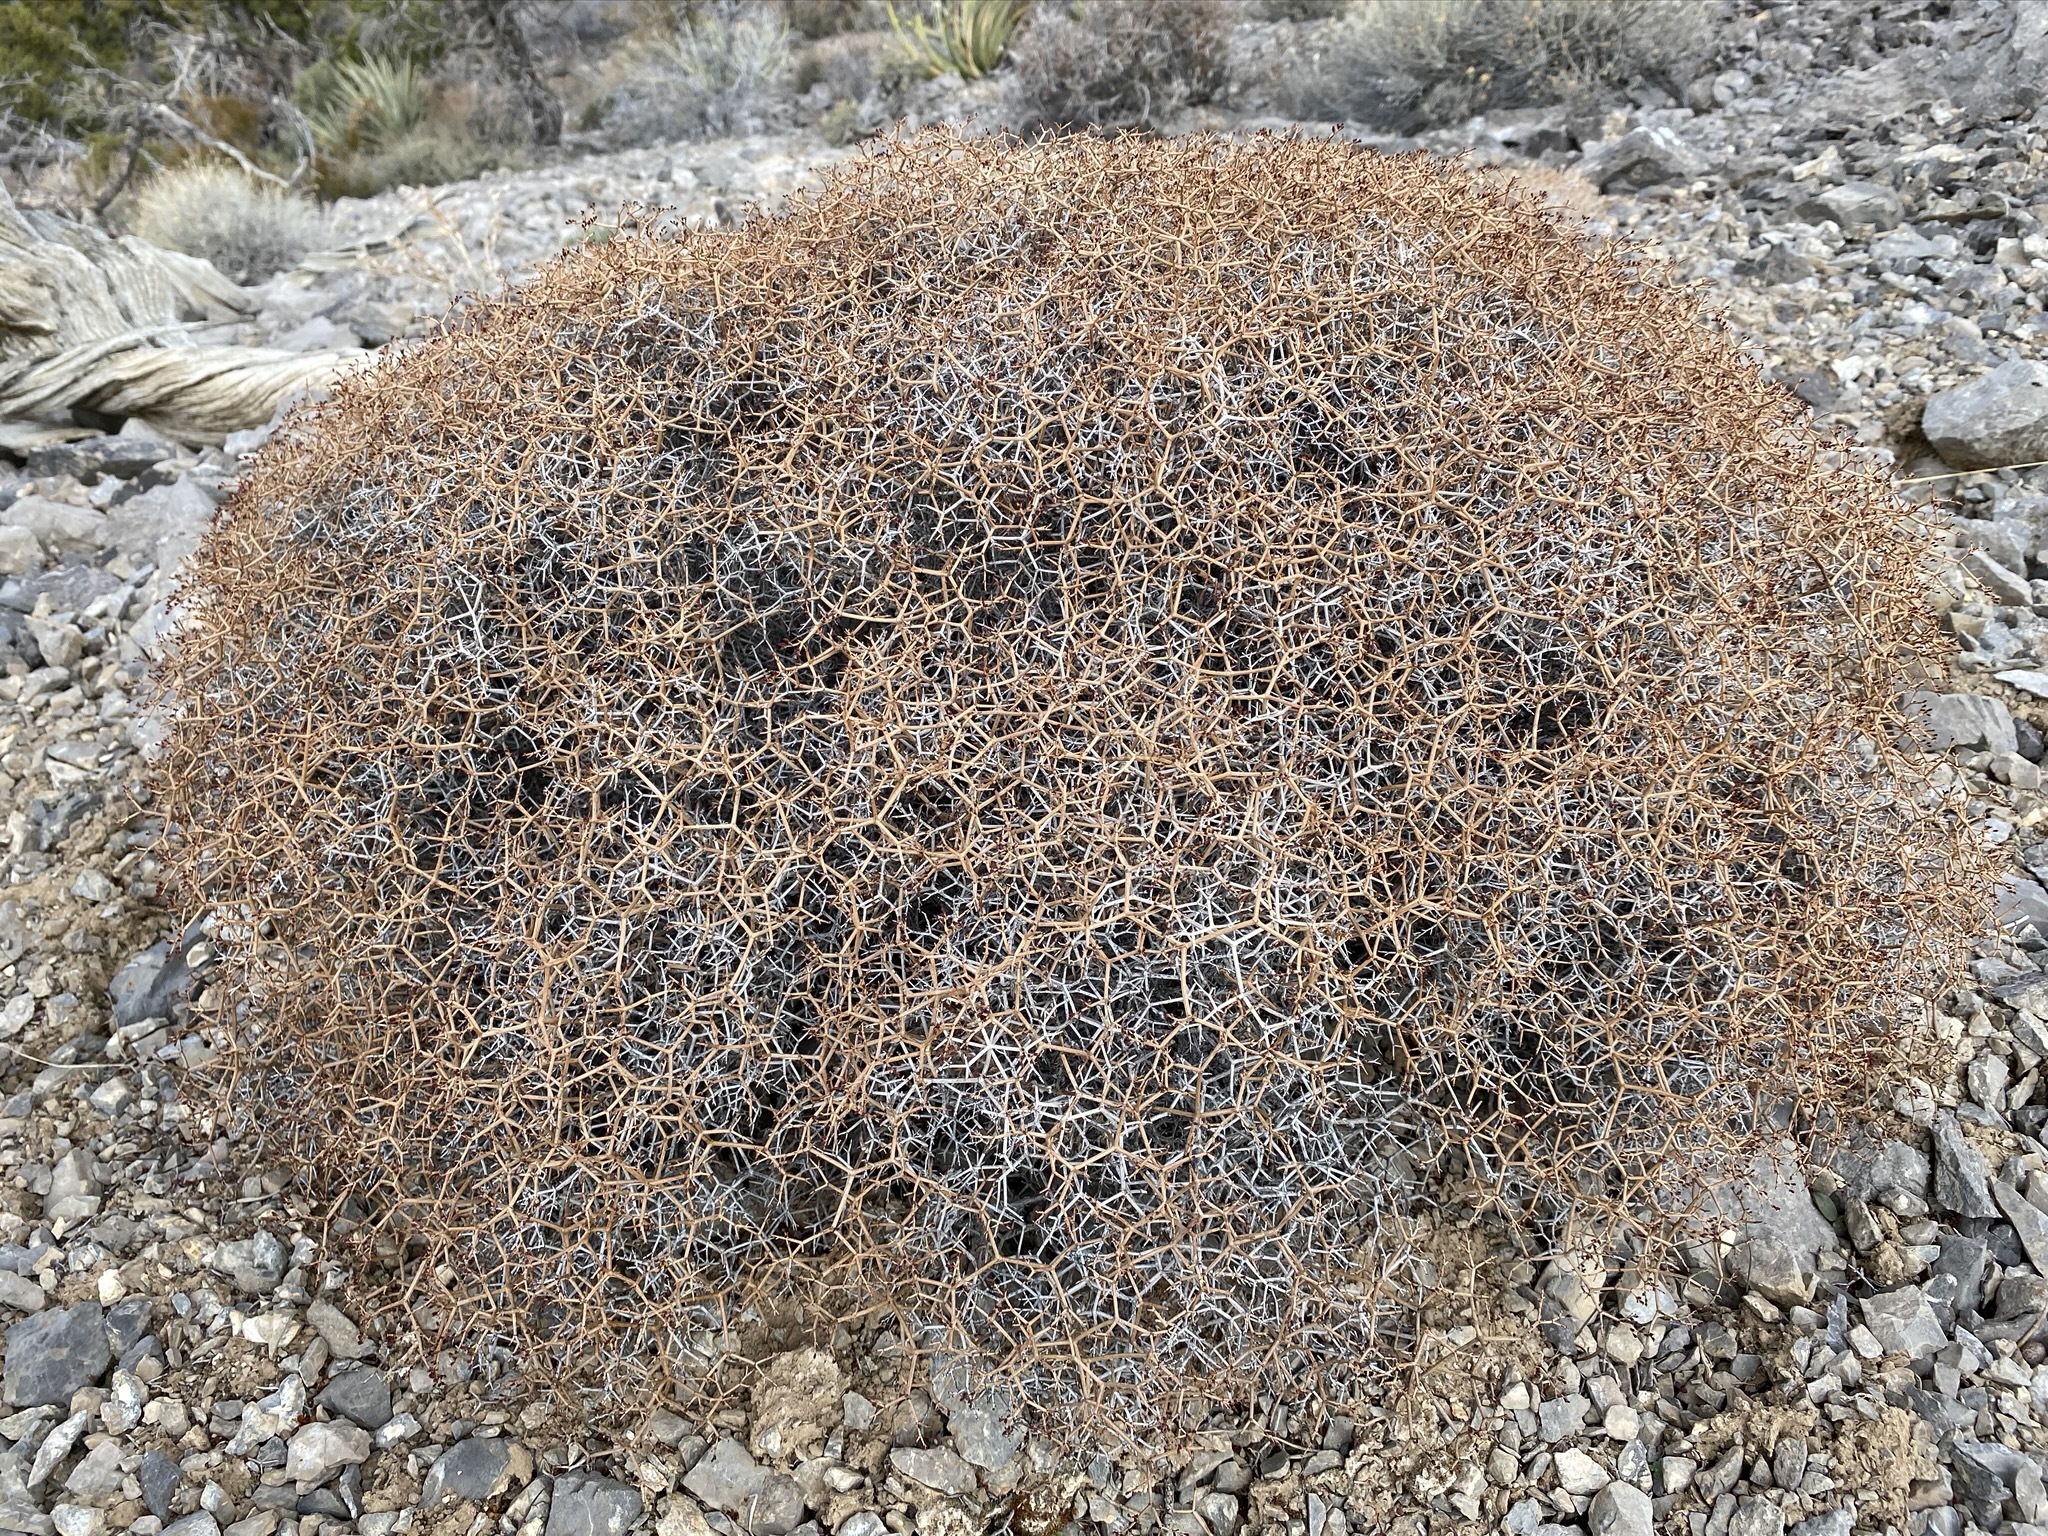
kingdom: Plantae
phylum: Tracheophyta
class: Magnoliopsida
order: Caryophyllales
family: Polygonaceae
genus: Eriogonum
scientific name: Eriogonum heermannii
